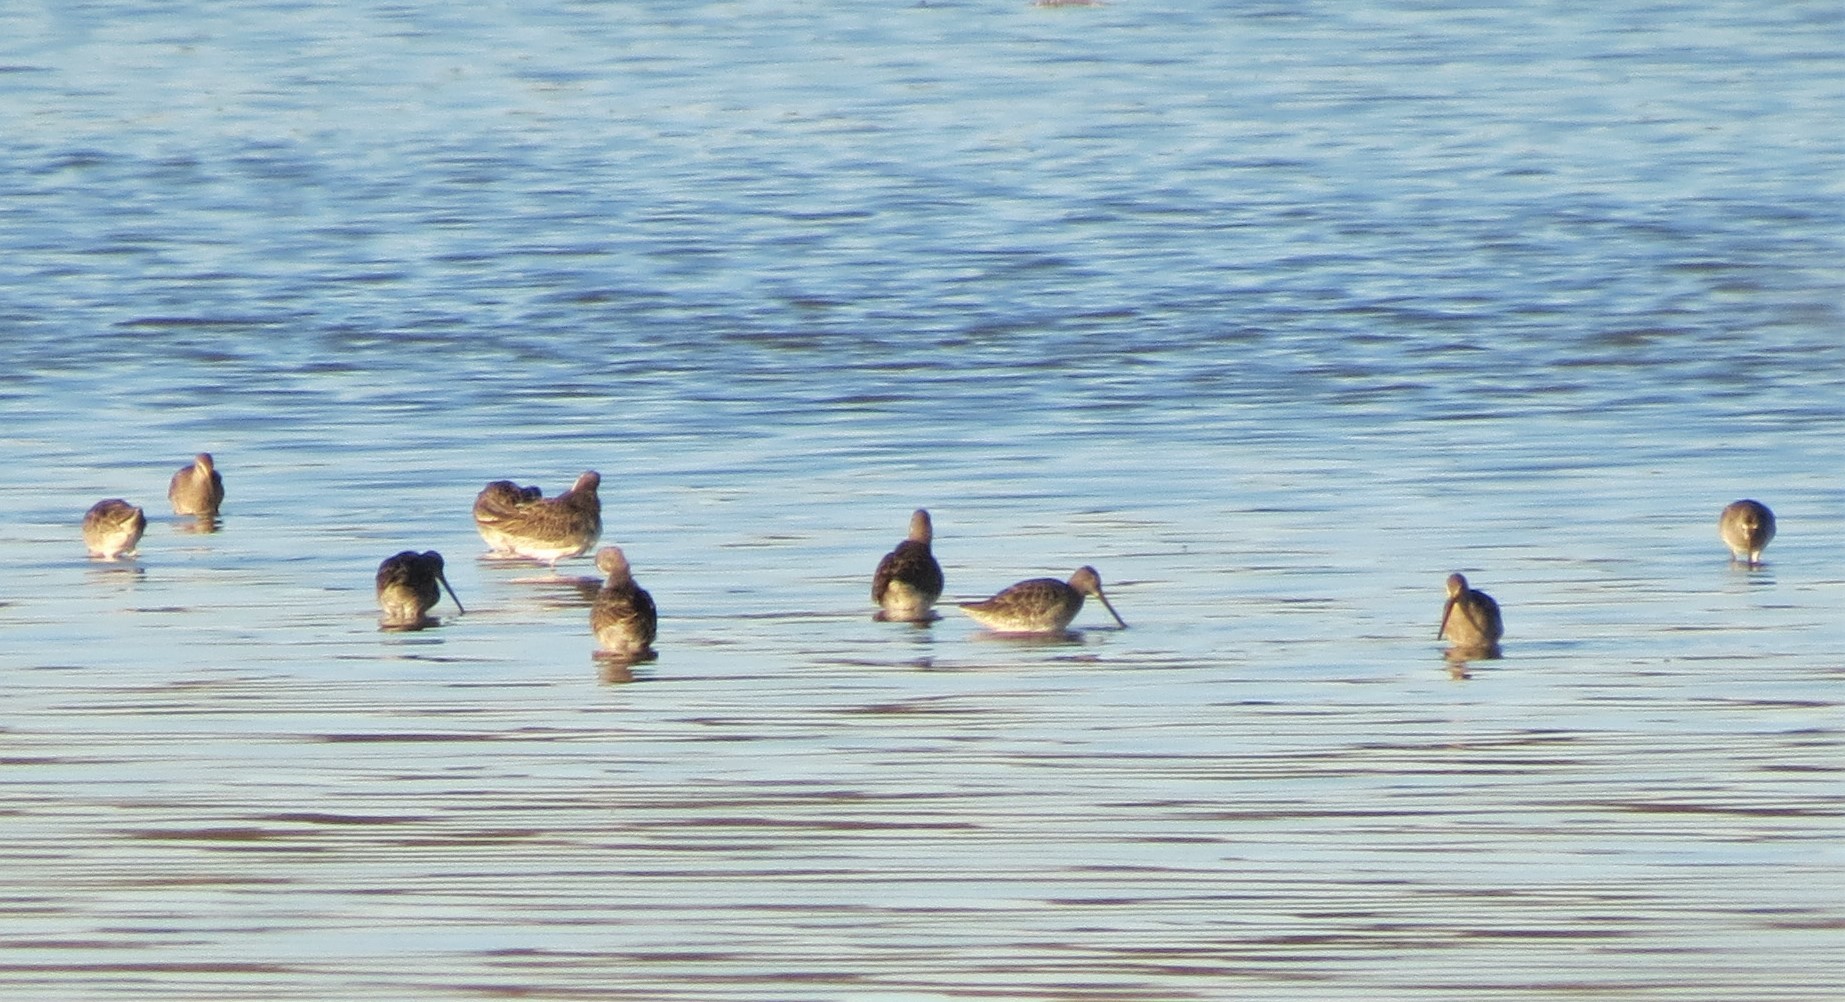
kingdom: Animalia
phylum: Chordata
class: Aves
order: Charadriiformes
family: Scolopacidae
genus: Limnodromus
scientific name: Limnodromus
